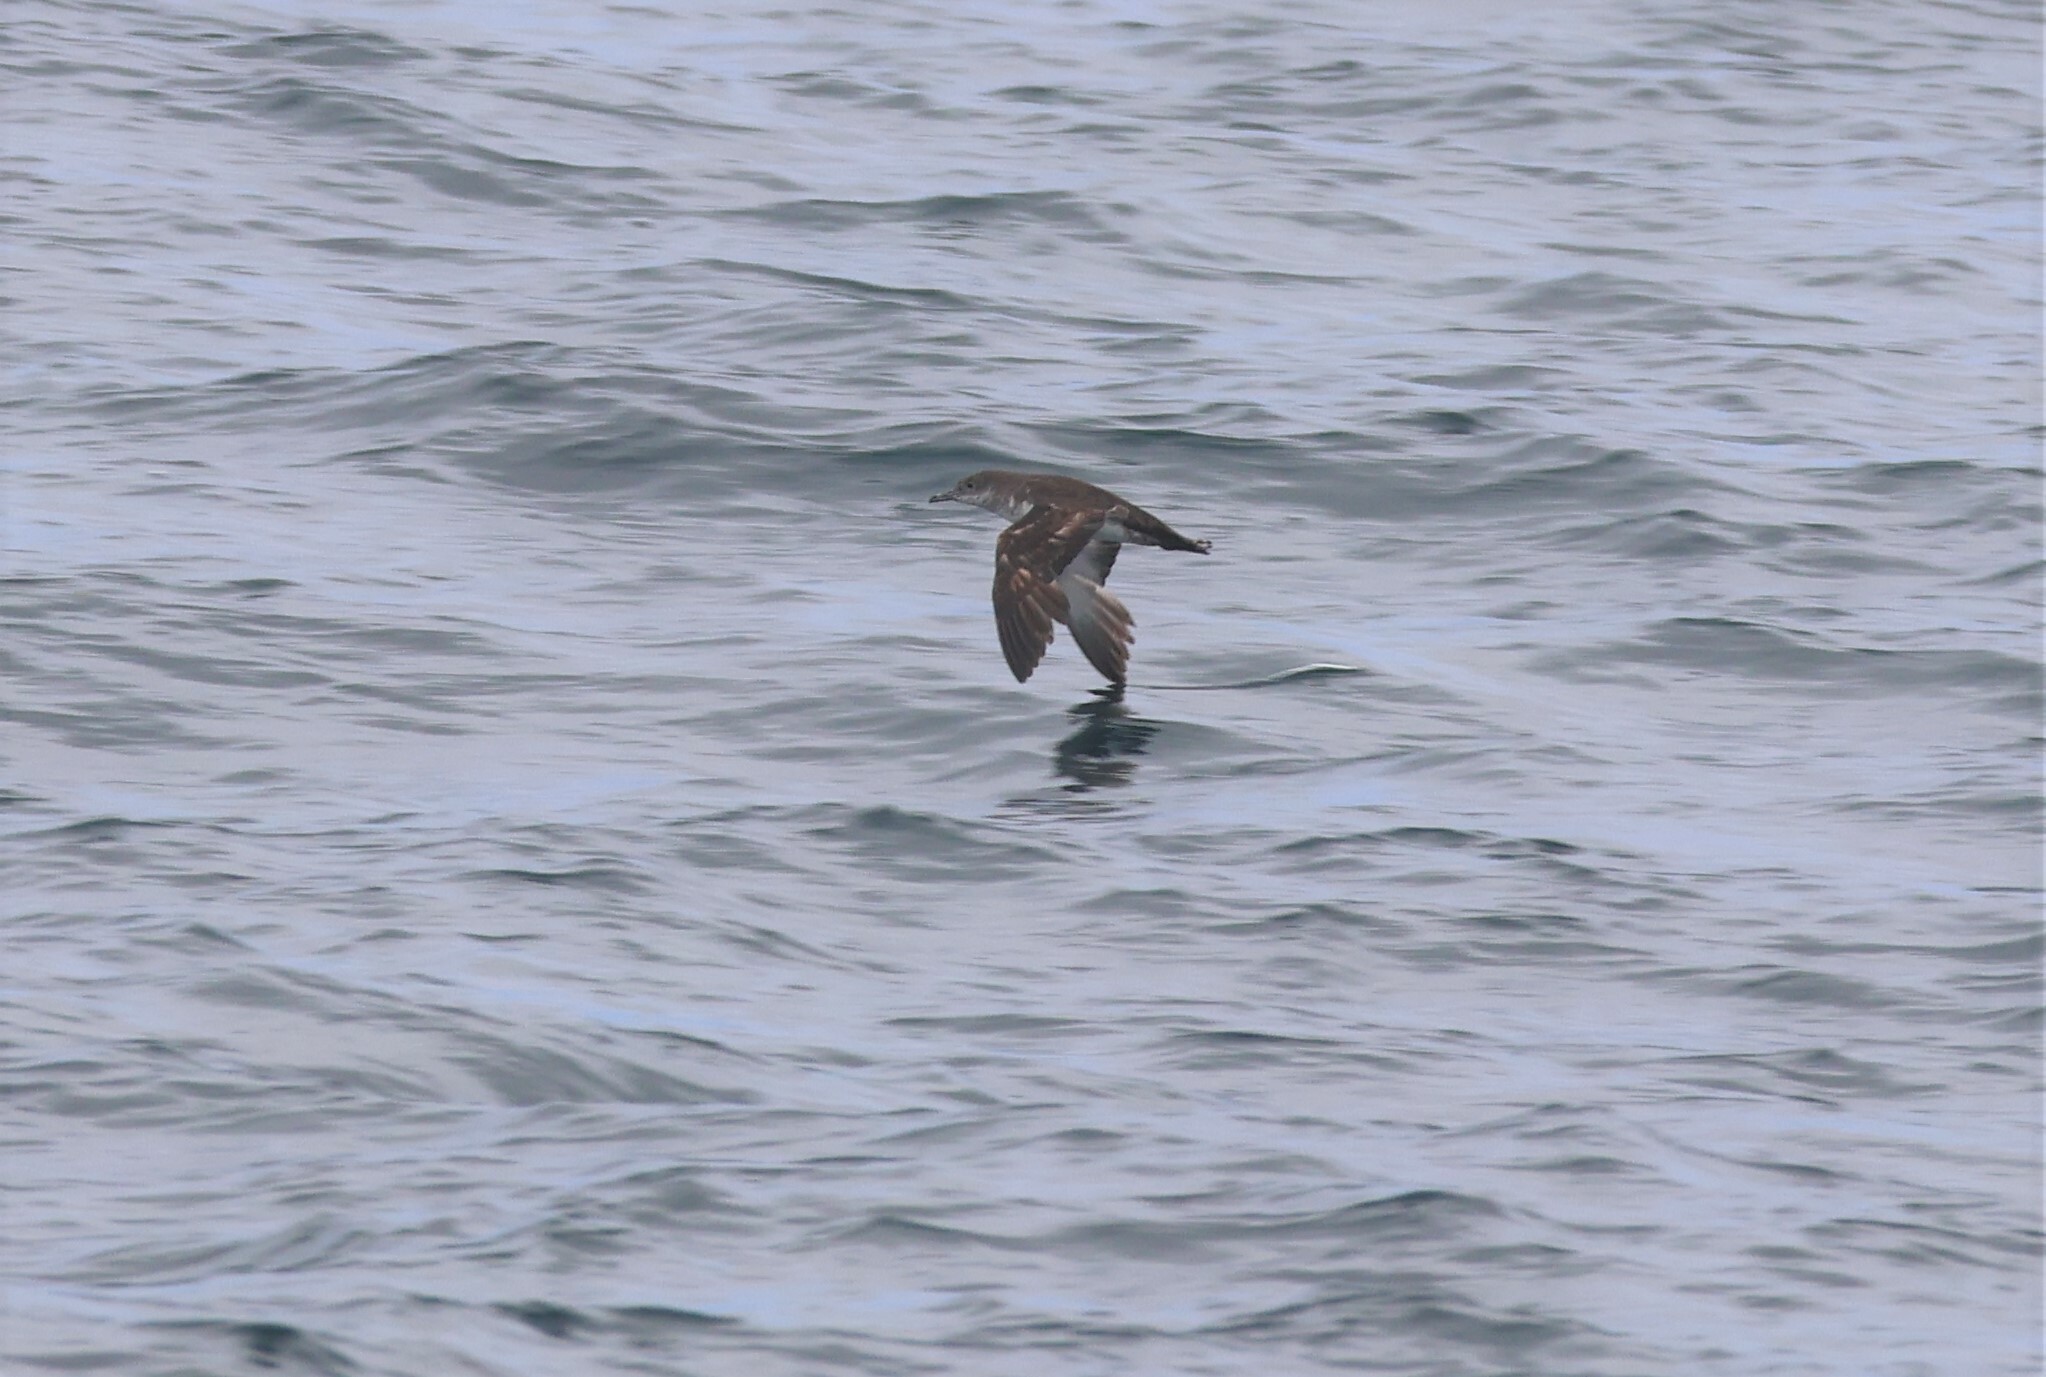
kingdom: Animalia
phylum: Chordata
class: Aves
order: Procellariiformes
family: Procellariidae
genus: Puffinus
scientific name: Puffinus opisthomelas
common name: Black-vented shearwater
